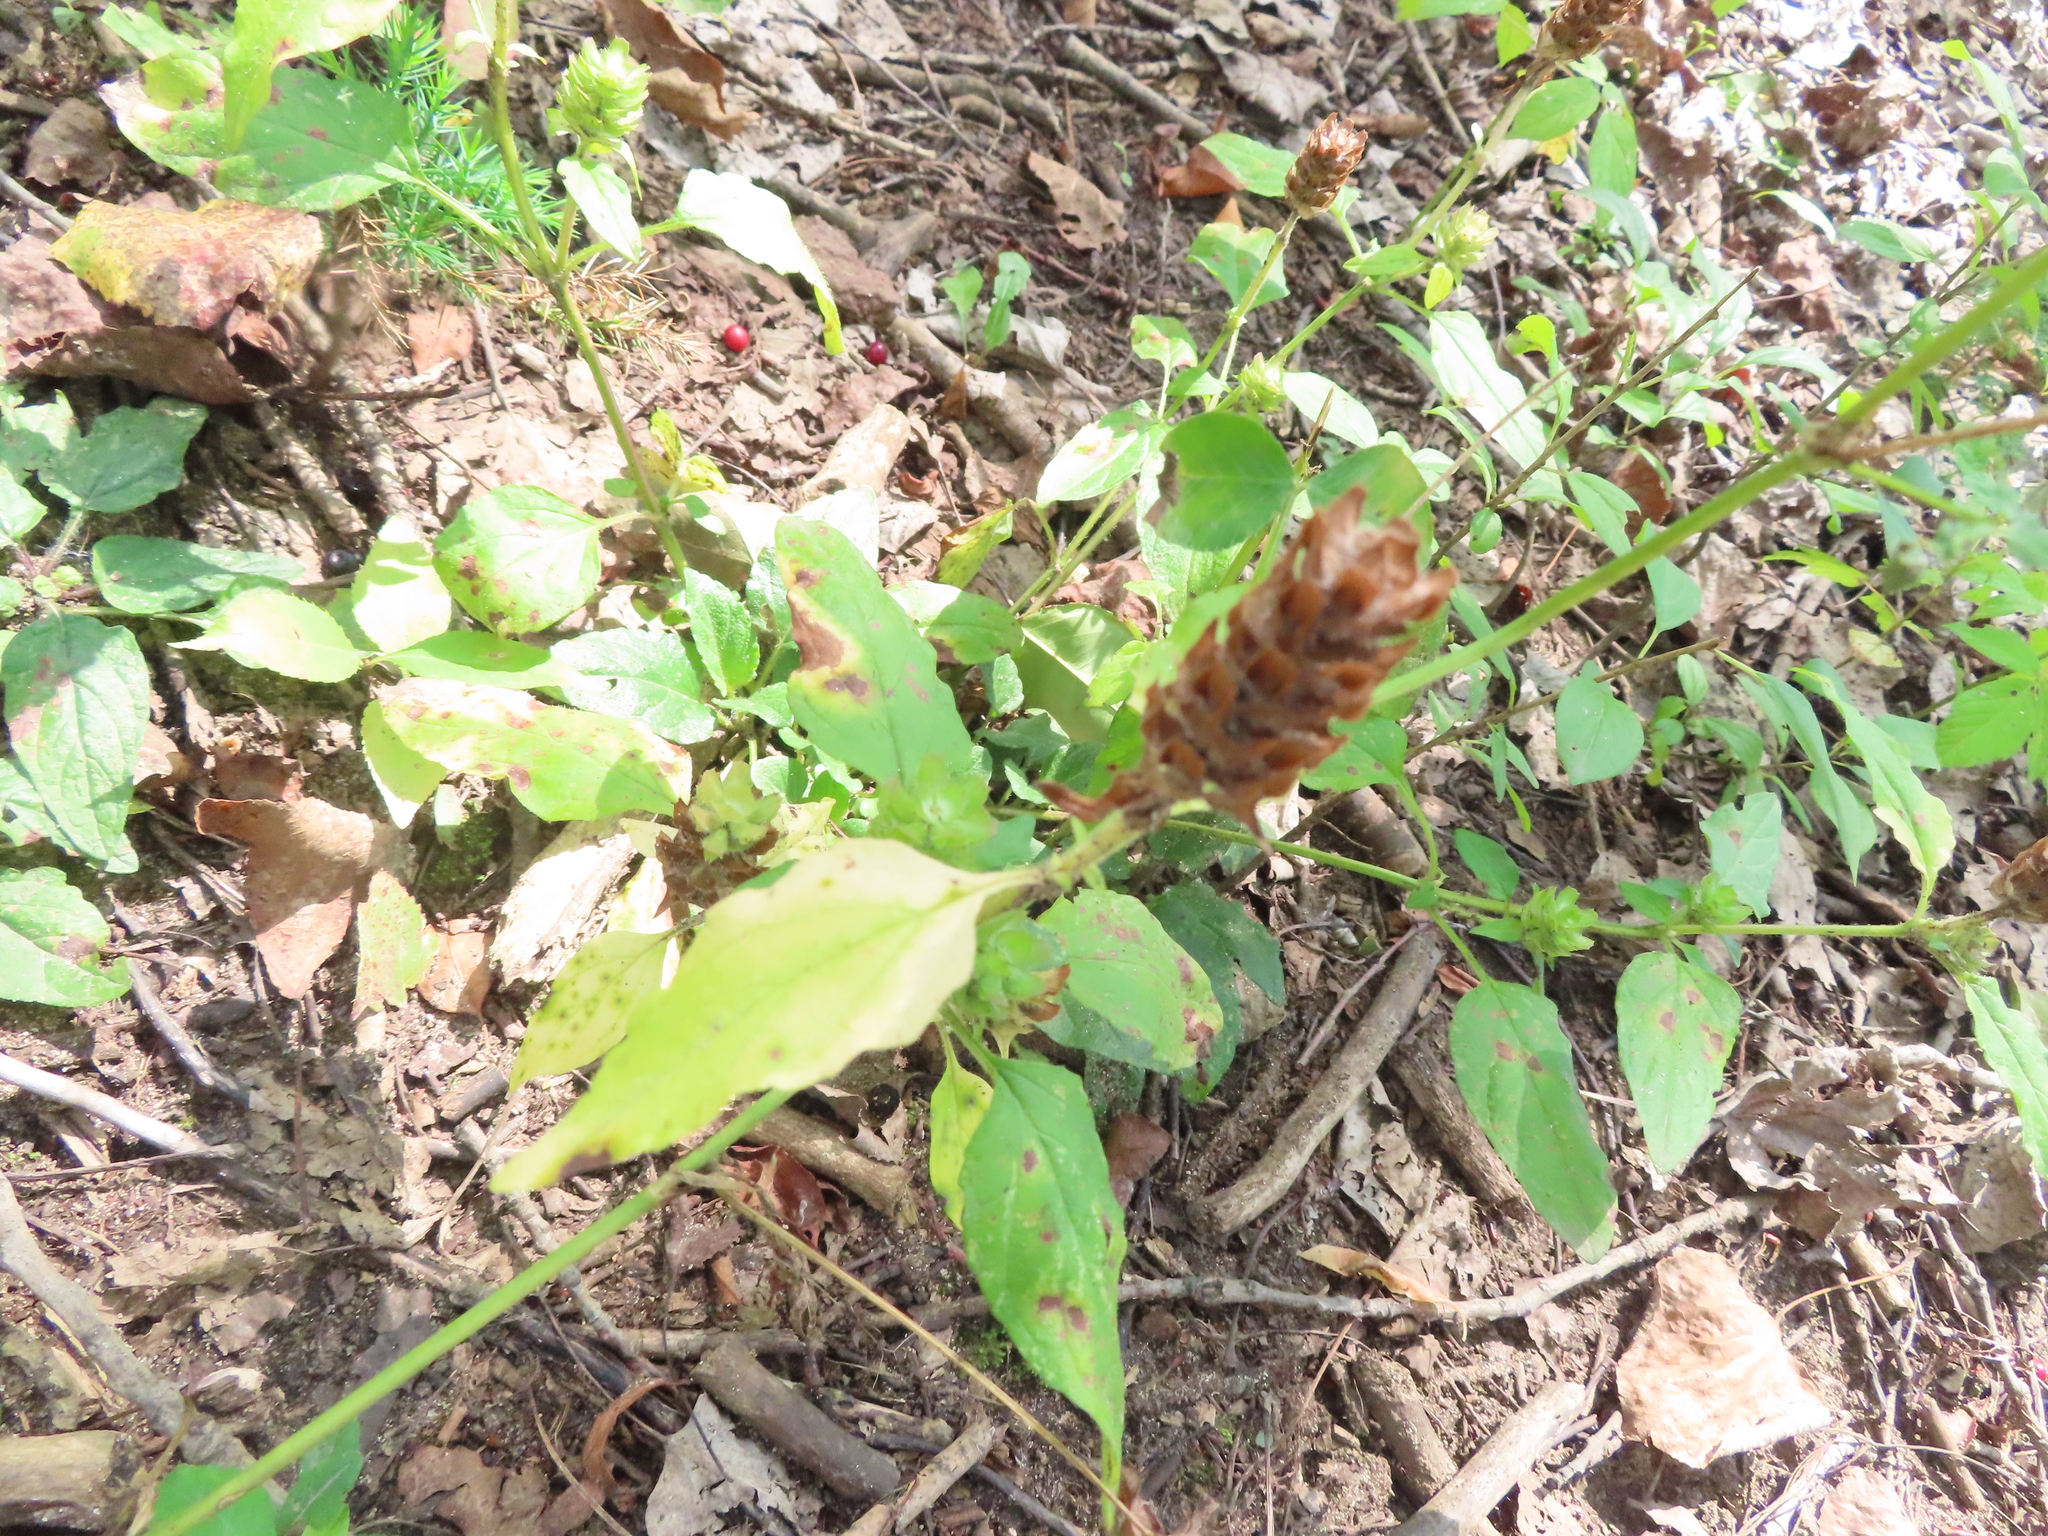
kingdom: Plantae
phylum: Tracheophyta
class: Magnoliopsida
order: Lamiales
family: Lamiaceae
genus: Prunella
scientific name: Prunella vulgaris
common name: Heal-all
